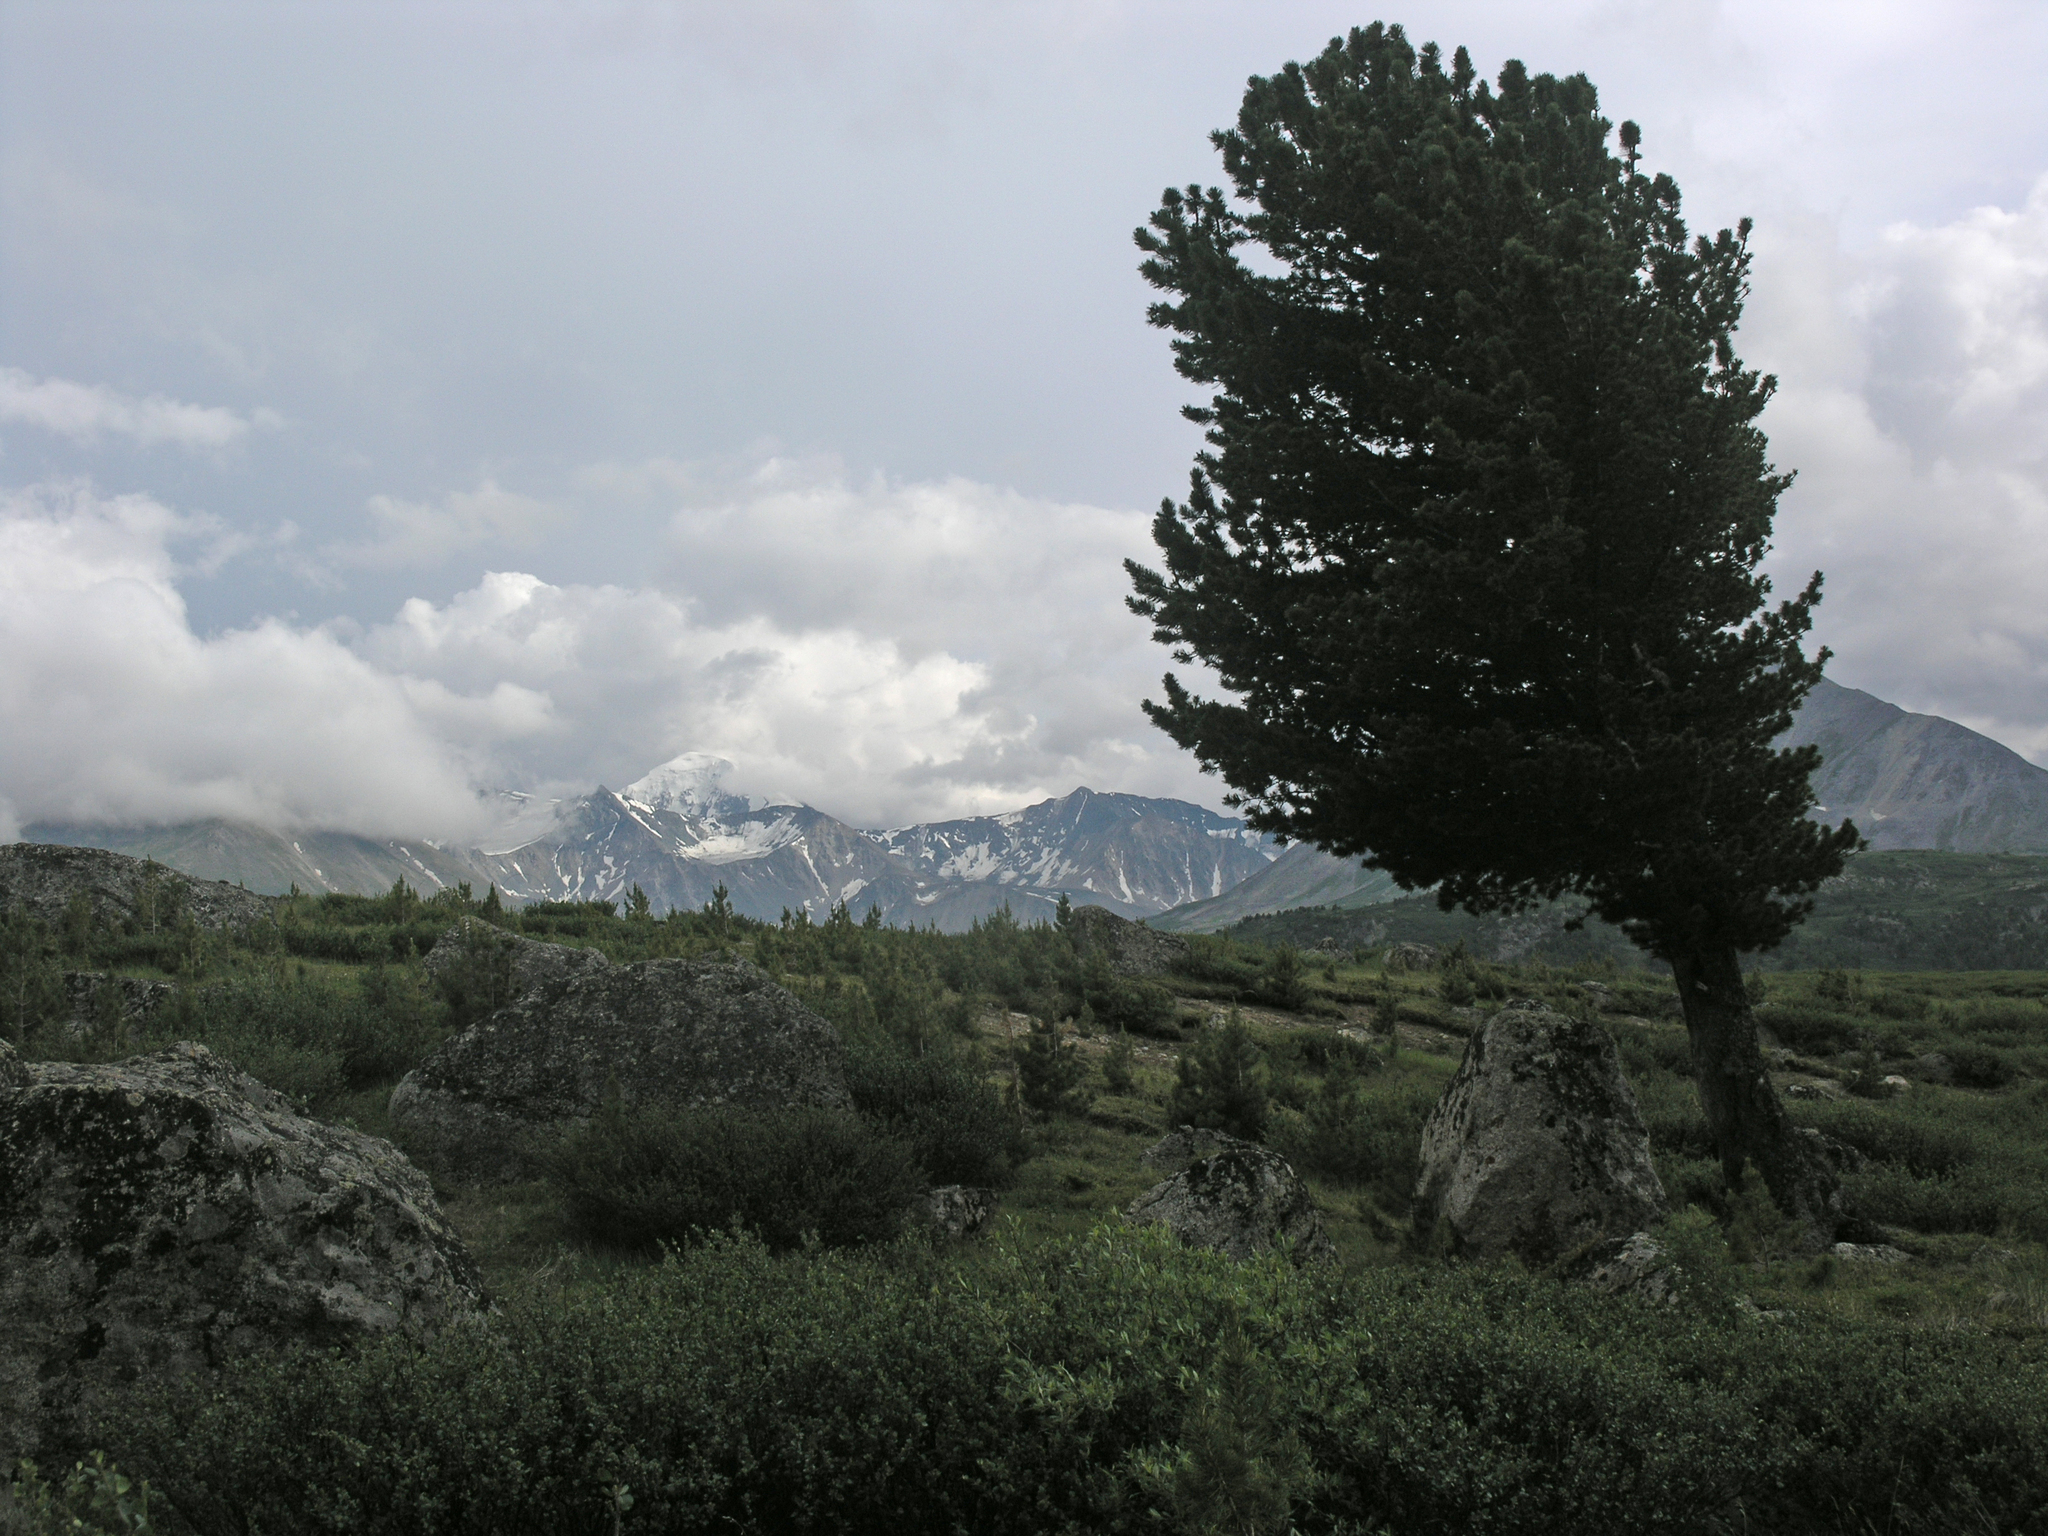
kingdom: Plantae
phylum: Tracheophyta
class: Pinopsida
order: Pinales
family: Pinaceae
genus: Pinus
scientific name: Pinus sibirica
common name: Siberian pine
